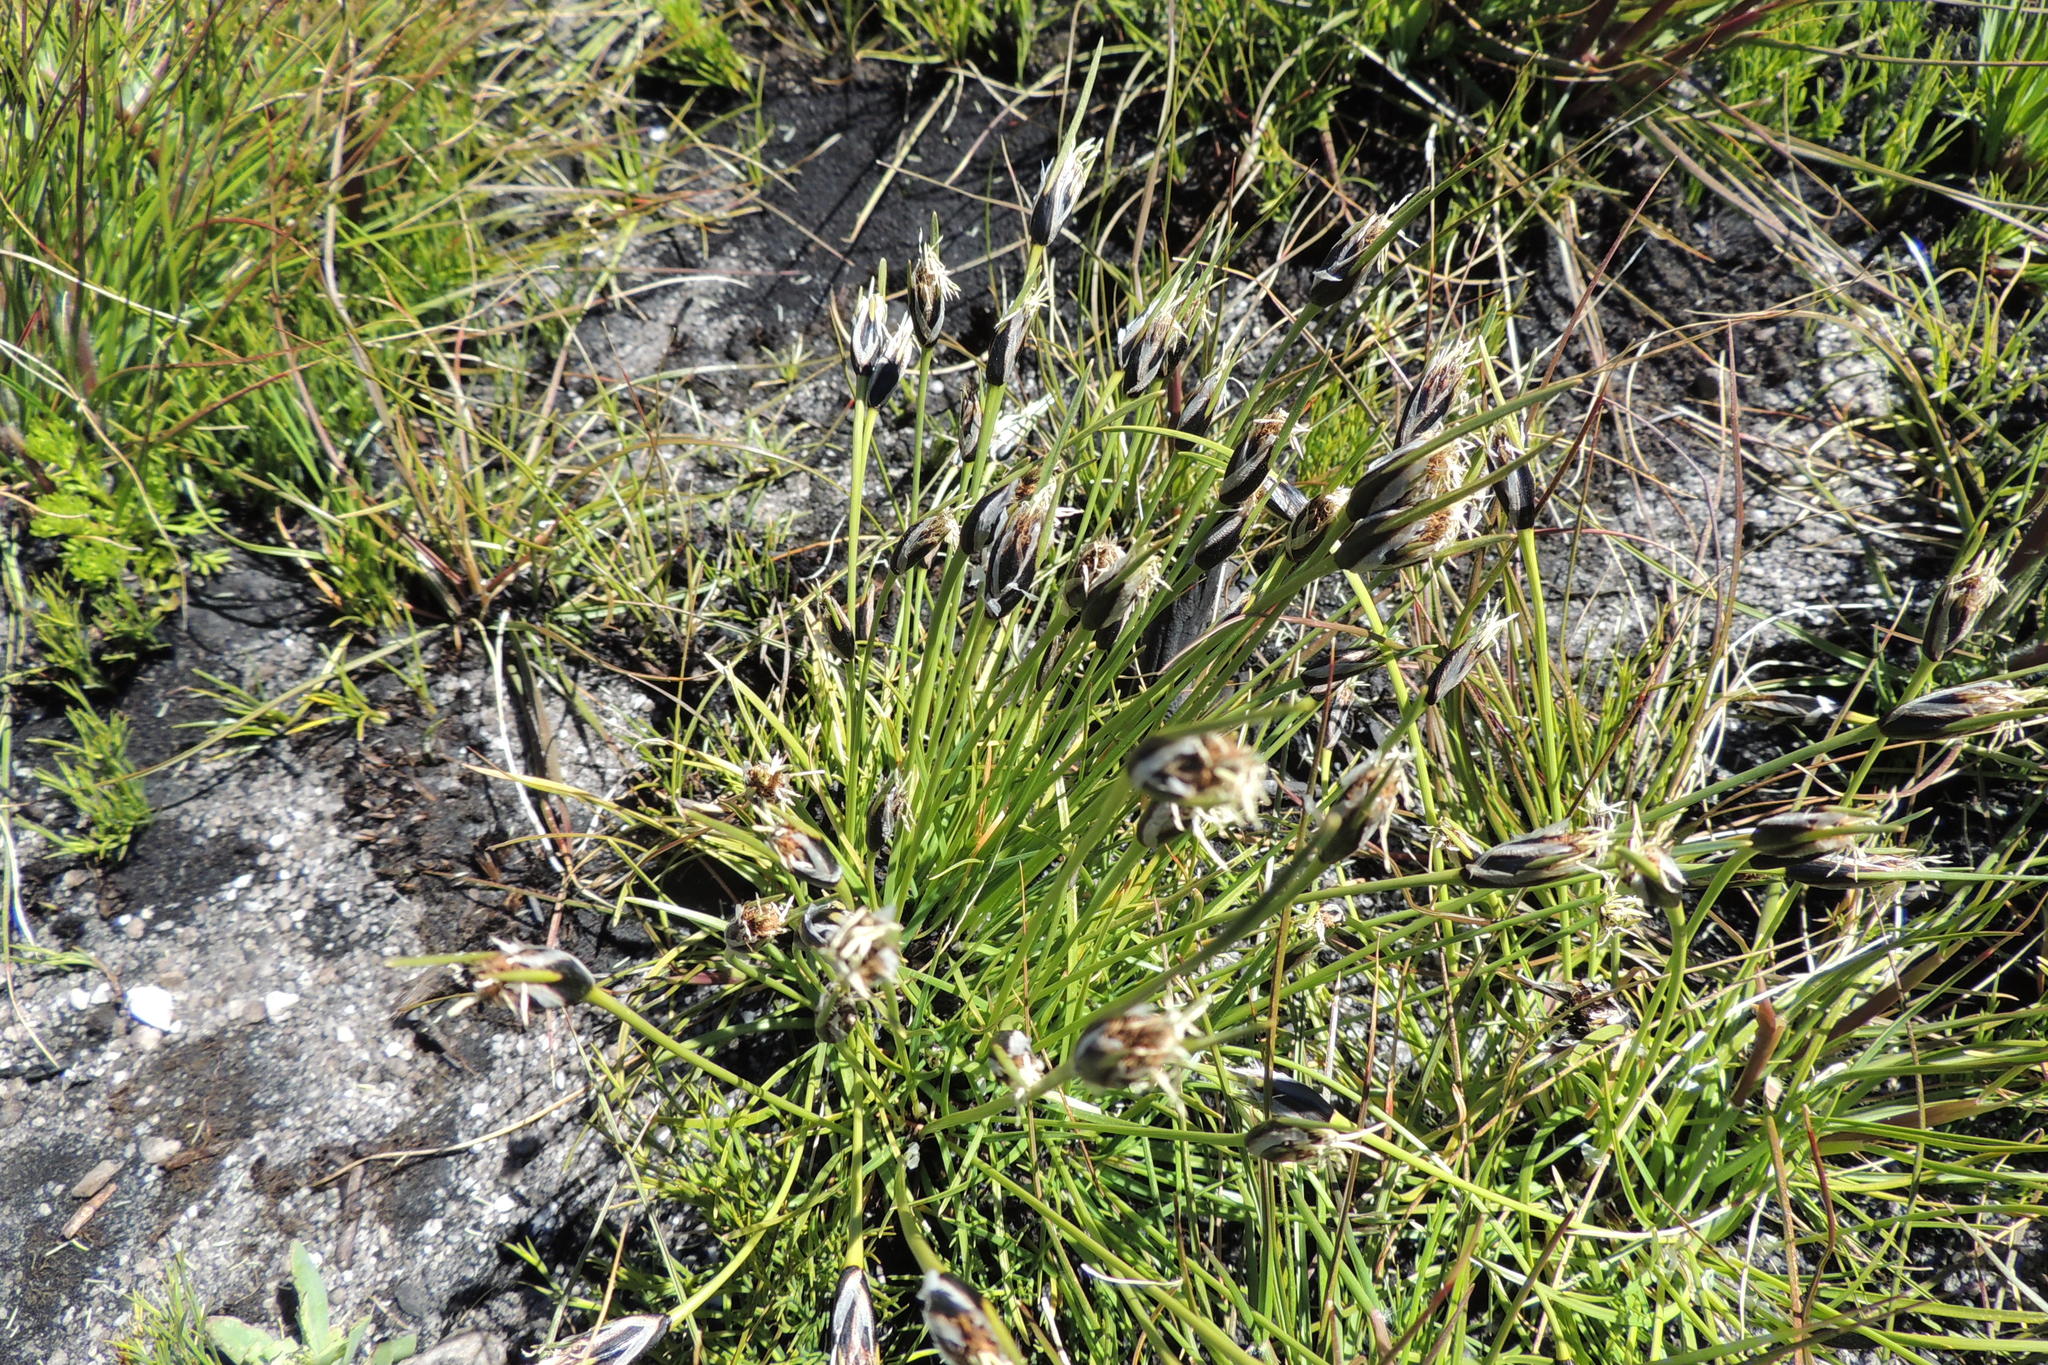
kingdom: Plantae
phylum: Tracheophyta
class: Liliopsida
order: Poales
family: Cyperaceae
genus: Ficinia
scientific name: Ficinia ixioides
